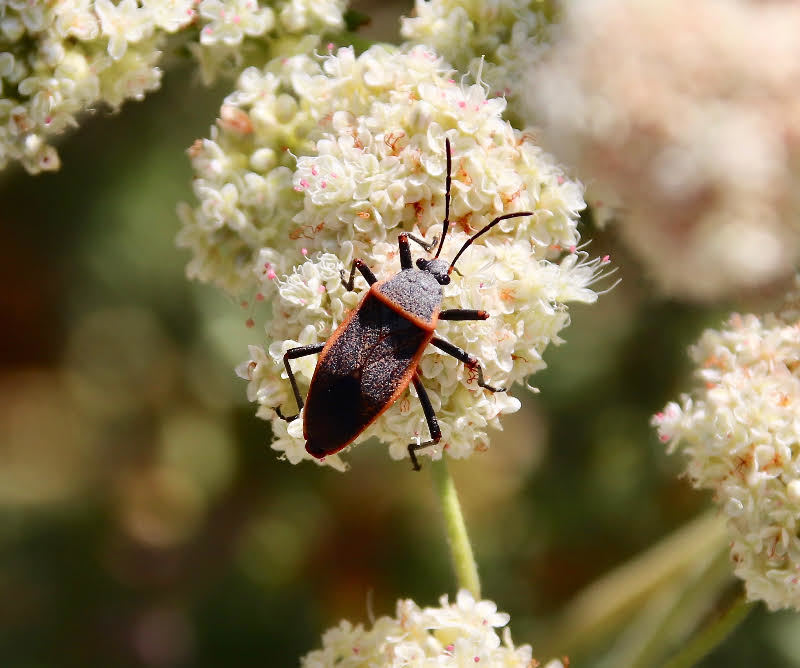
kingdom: Animalia
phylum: Arthropoda
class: Insecta
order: Hemiptera
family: Largidae
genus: Largus
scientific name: Largus californicus
